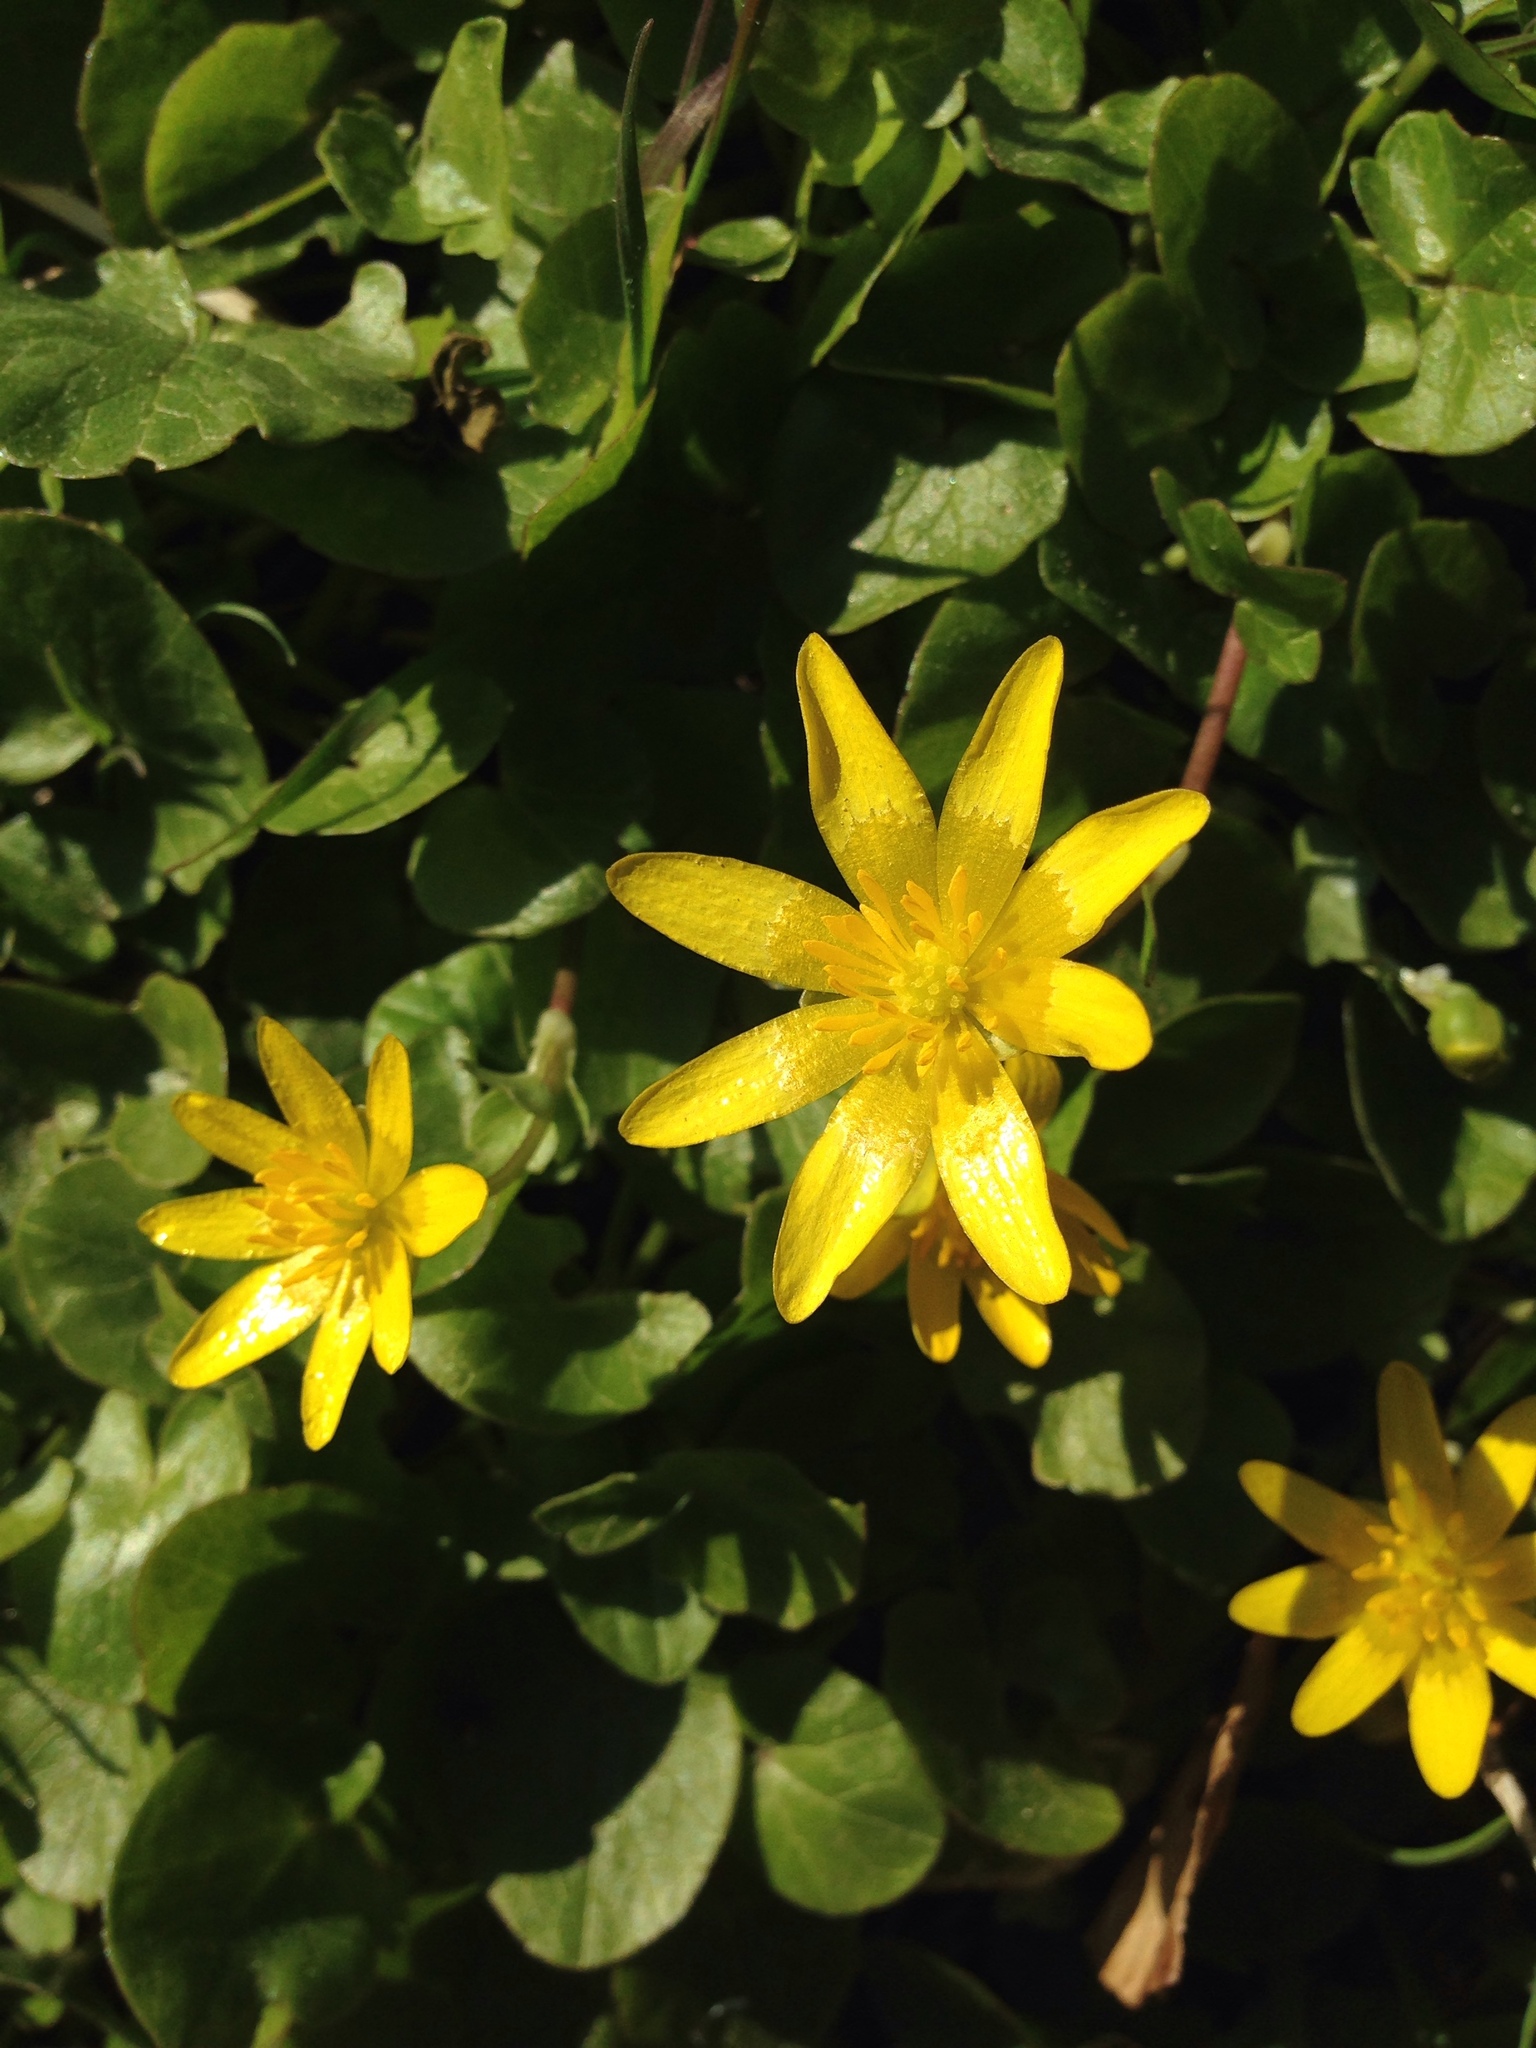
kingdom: Plantae
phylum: Tracheophyta
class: Magnoliopsida
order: Ranunculales
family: Ranunculaceae
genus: Ficaria
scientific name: Ficaria verna
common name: Lesser celandine
